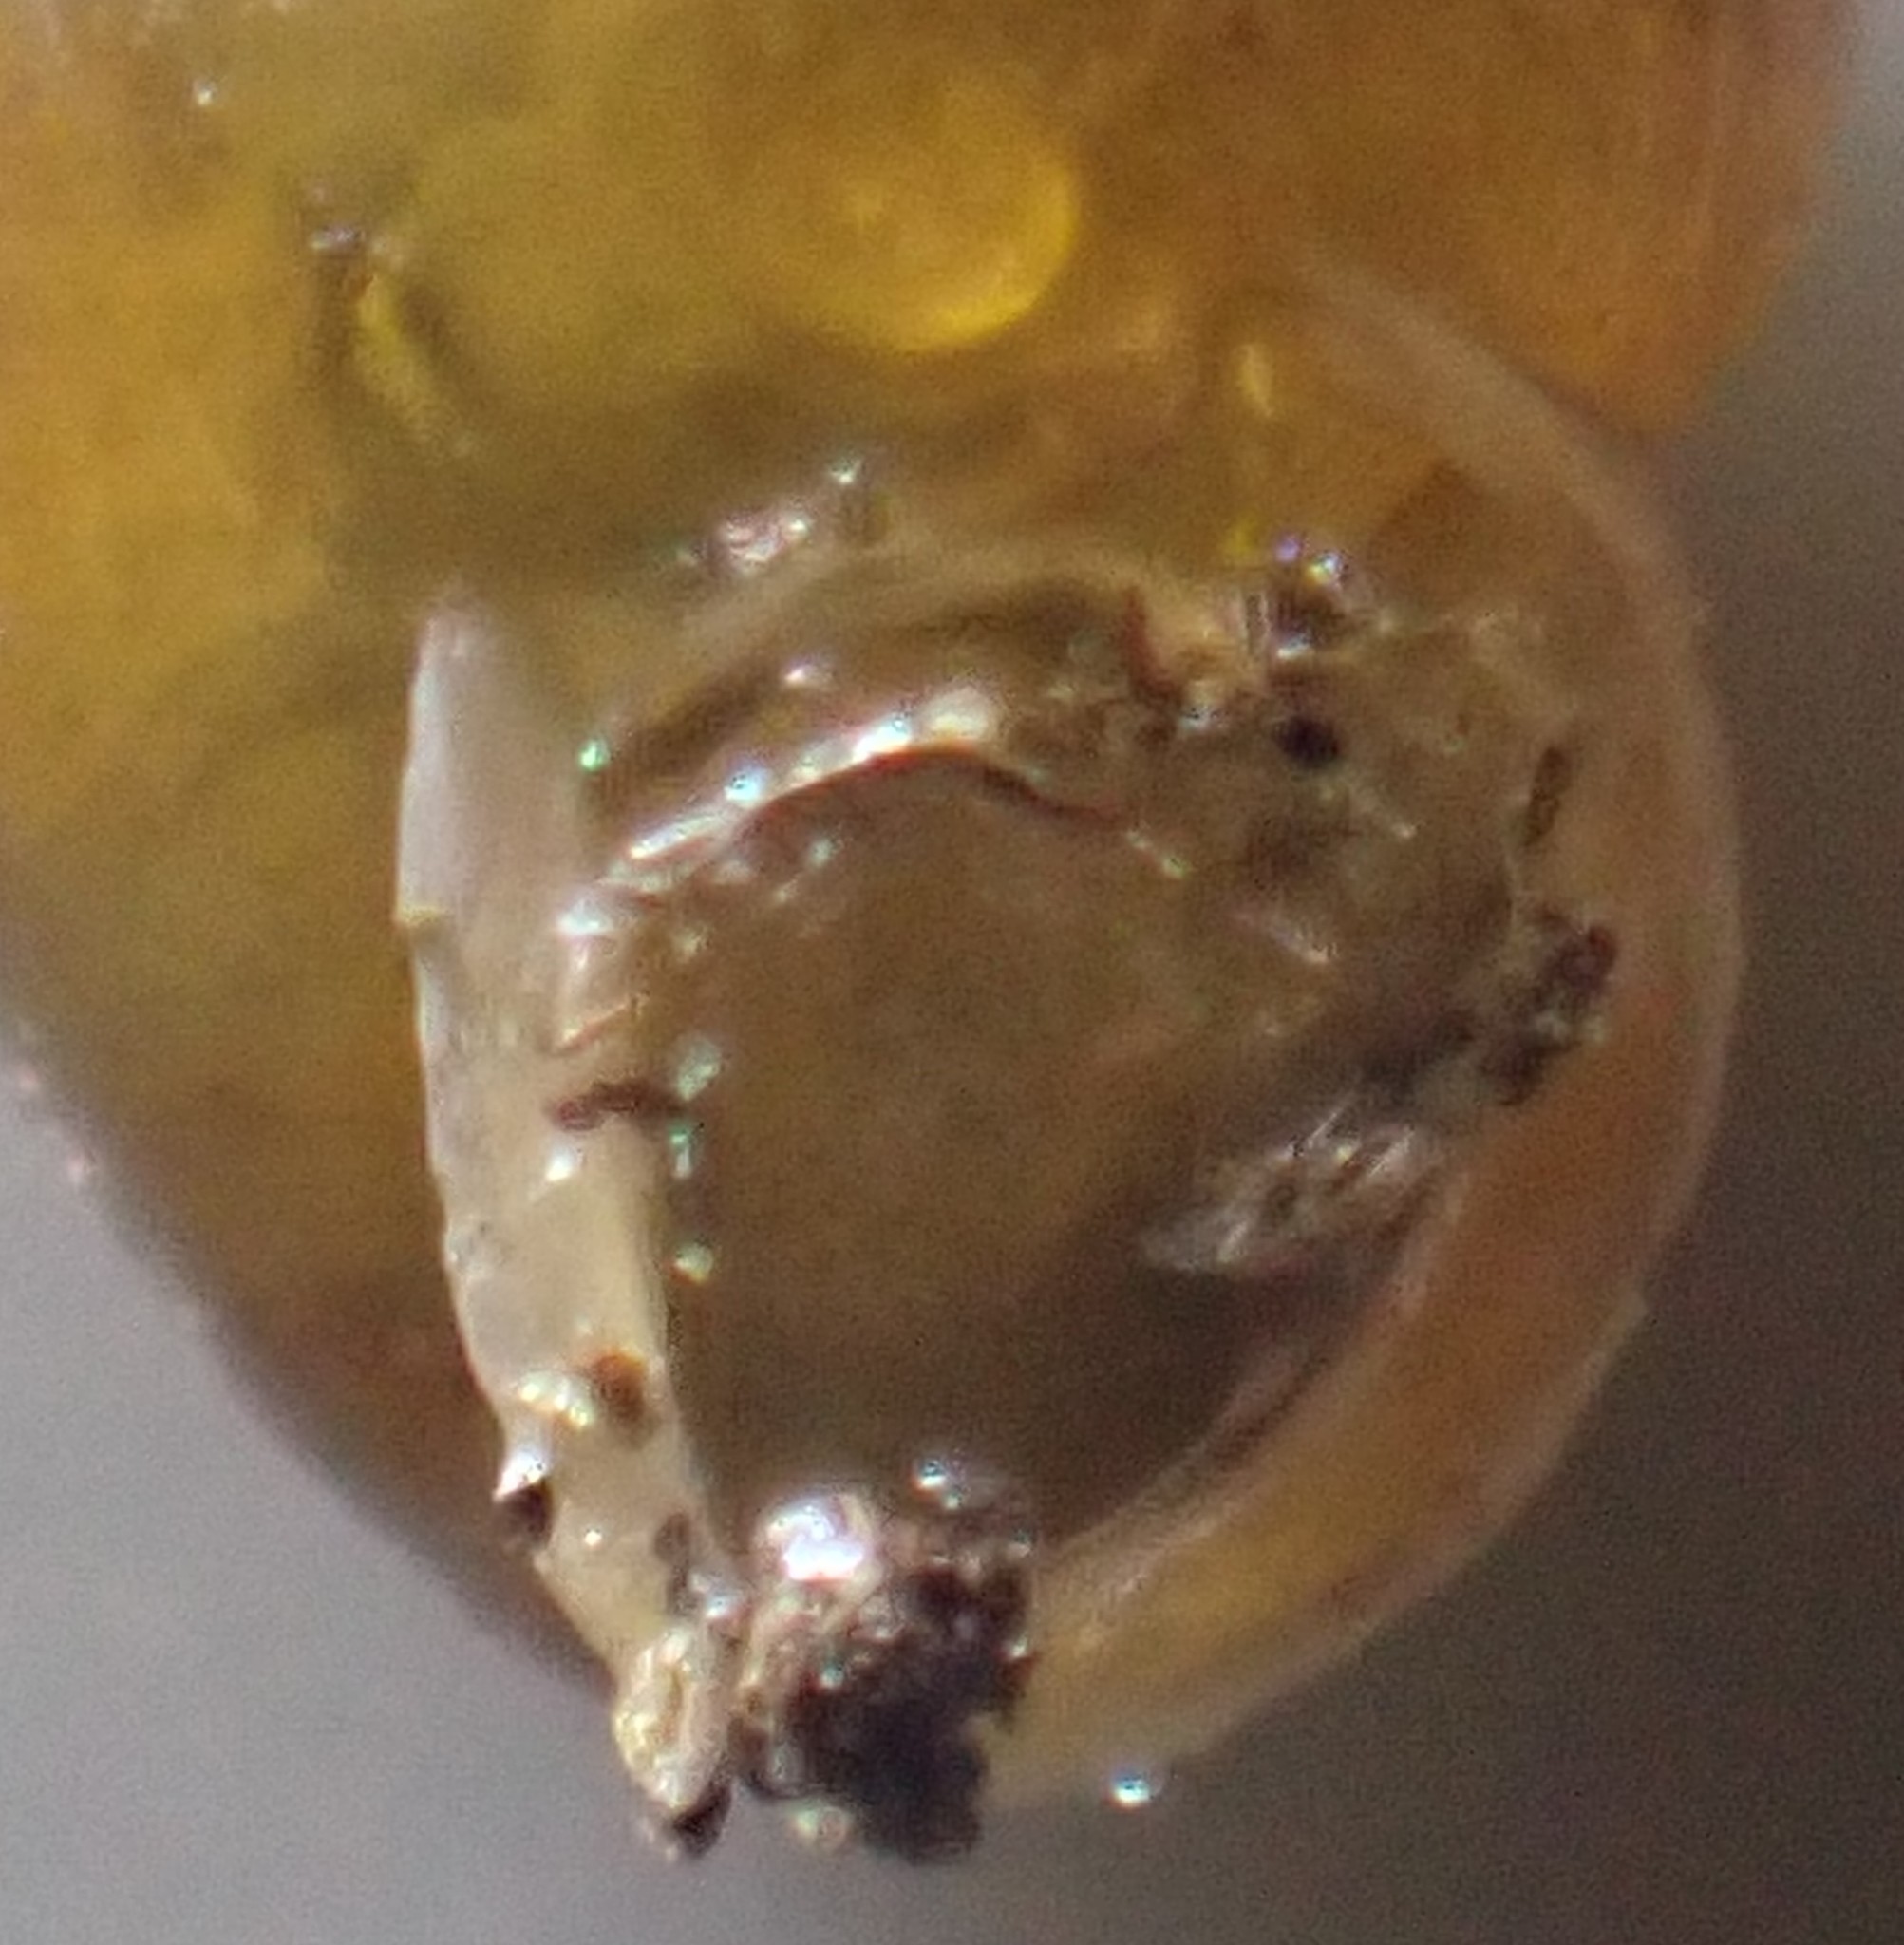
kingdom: Animalia
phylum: Mollusca
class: Gastropoda
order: Stylommatophora
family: Lauriidae
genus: Lauria
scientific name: Lauria cylindracea
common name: Common chrysalis snail
